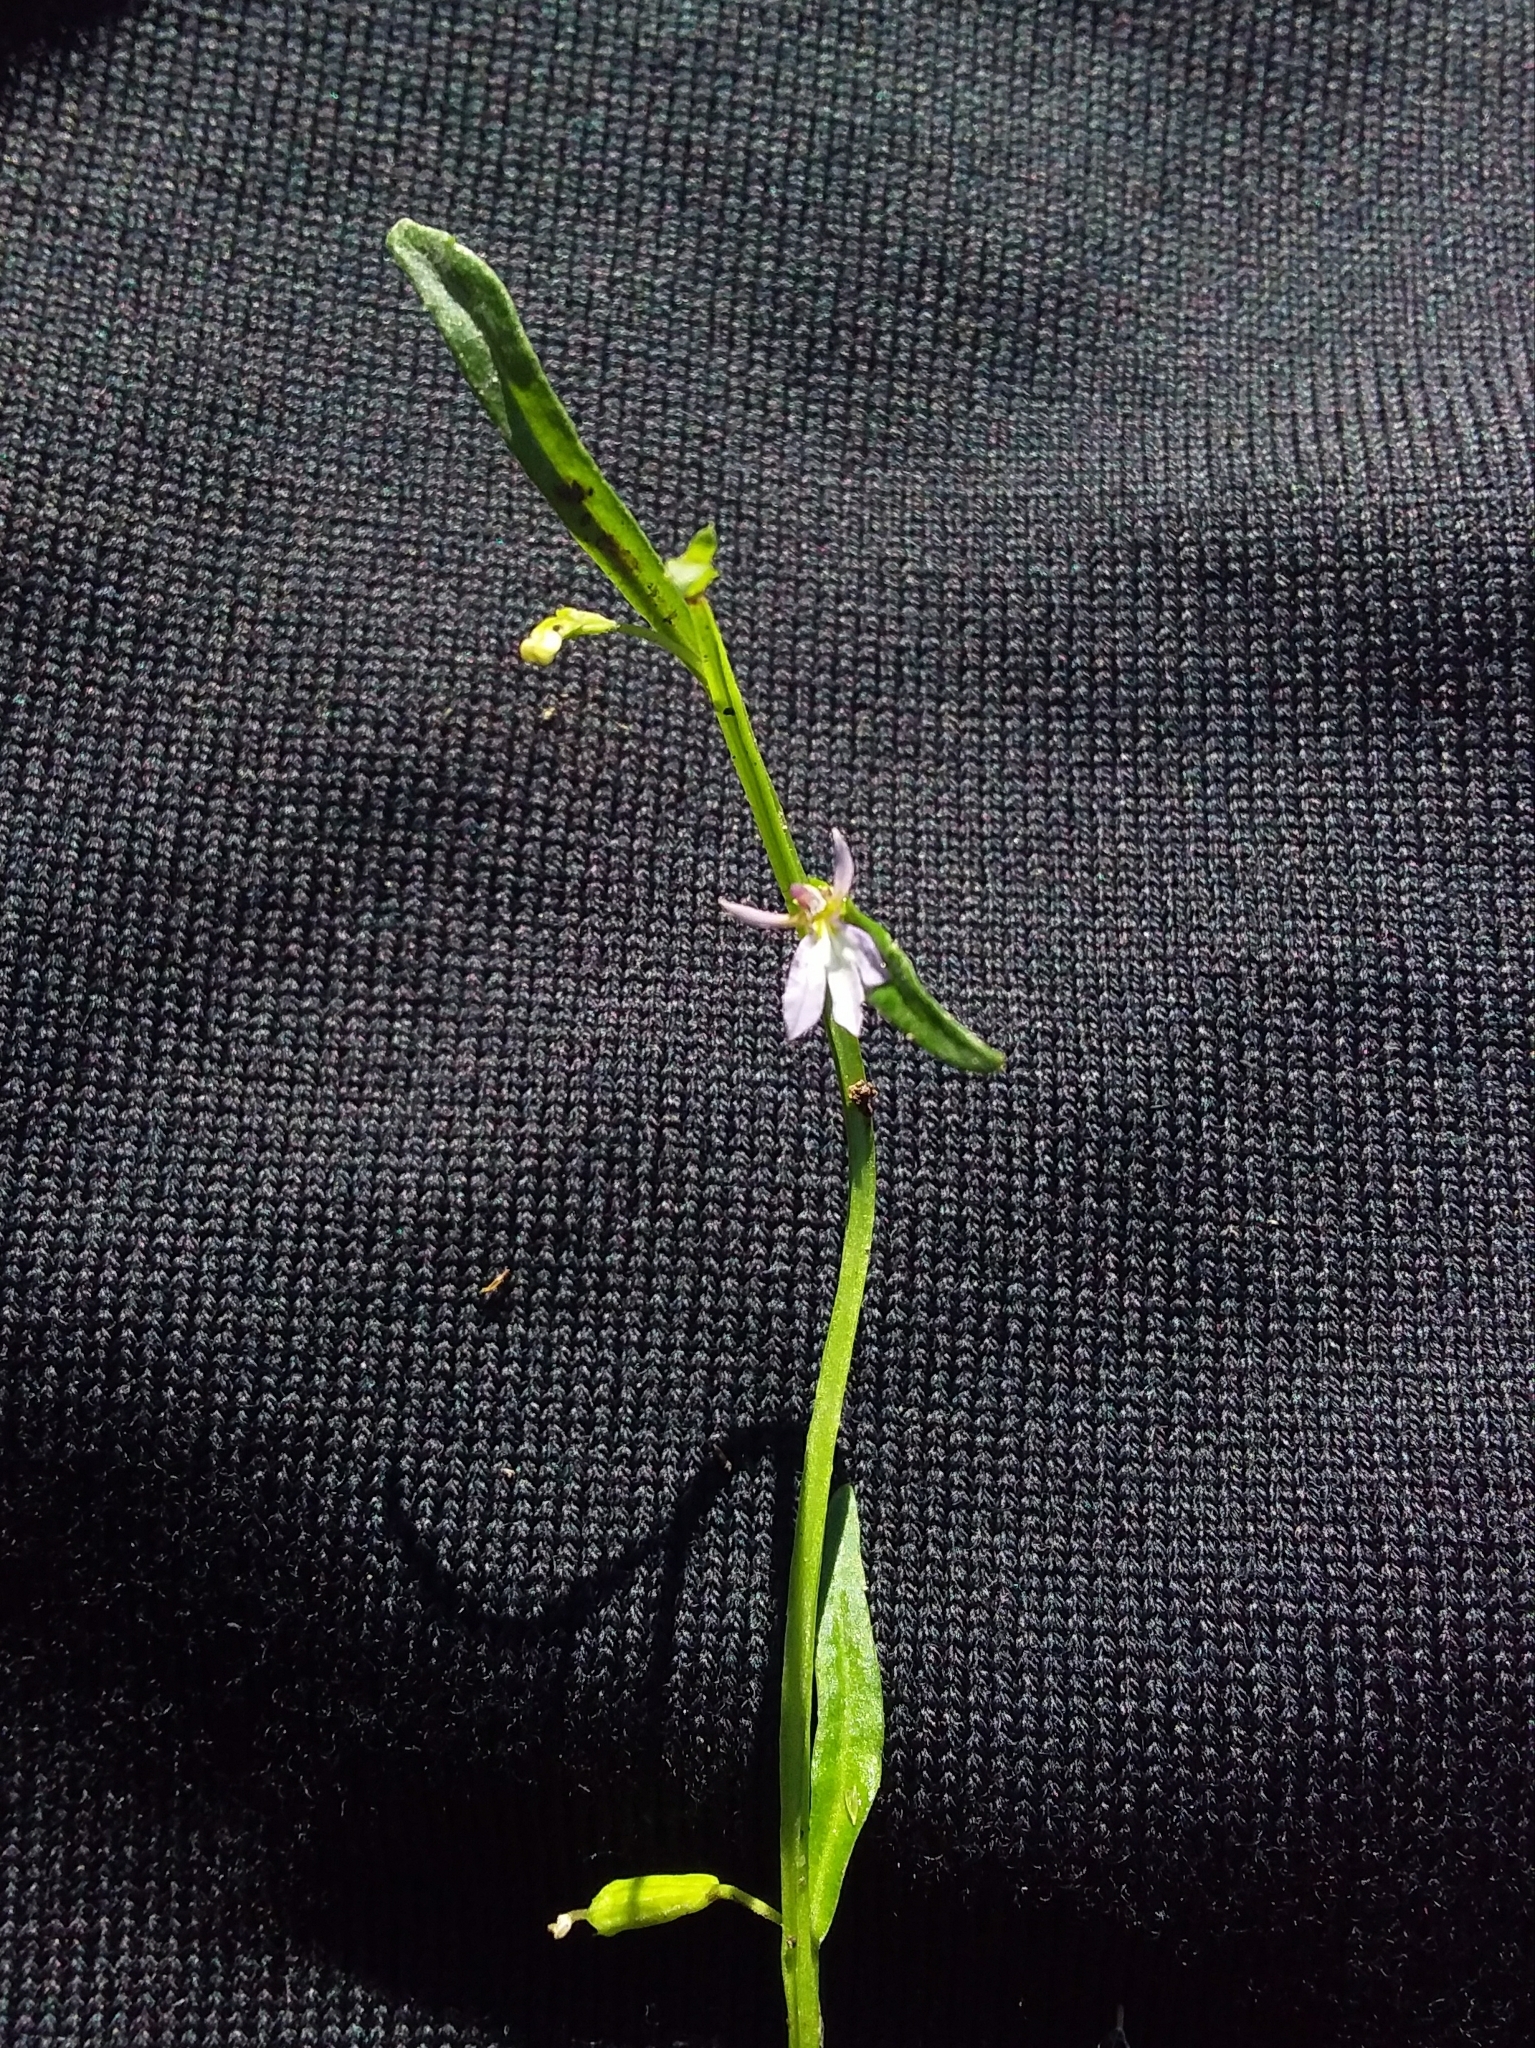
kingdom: Plantae
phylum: Tracheophyta
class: Magnoliopsida
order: Asterales
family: Campanulaceae
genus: Lobelia
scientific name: Lobelia anceps
